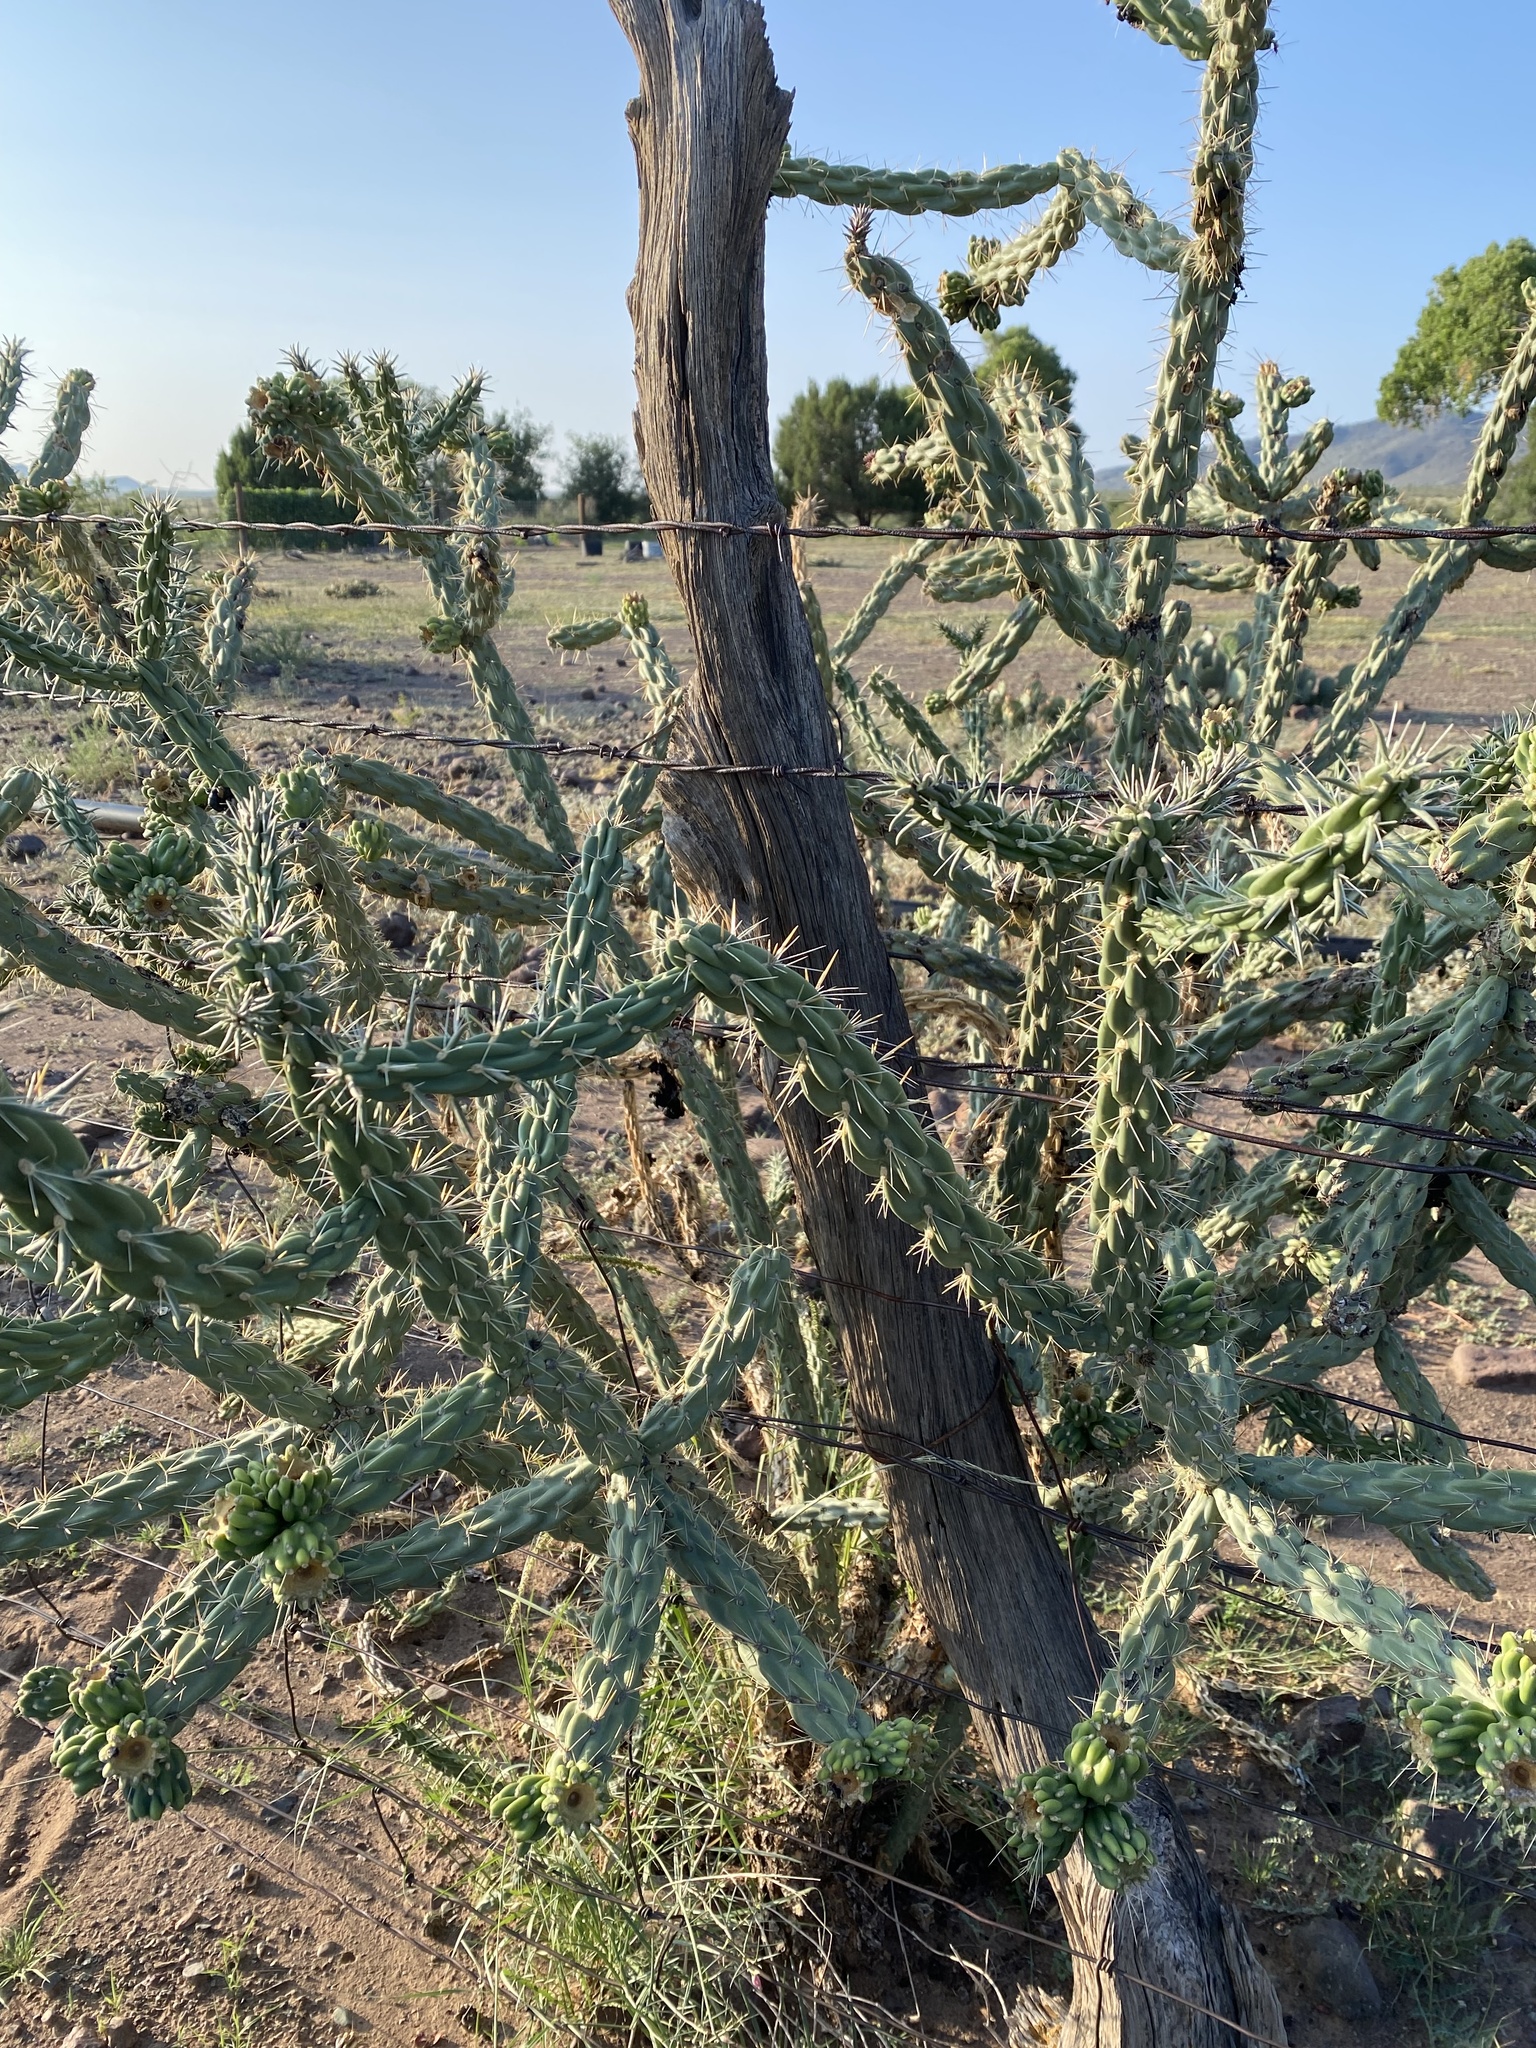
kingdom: Plantae
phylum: Tracheophyta
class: Magnoliopsida
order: Caryophyllales
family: Cactaceae
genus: Cylindropuntia
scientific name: Cylindropuntia imbricata
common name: Candelabrum cactus
